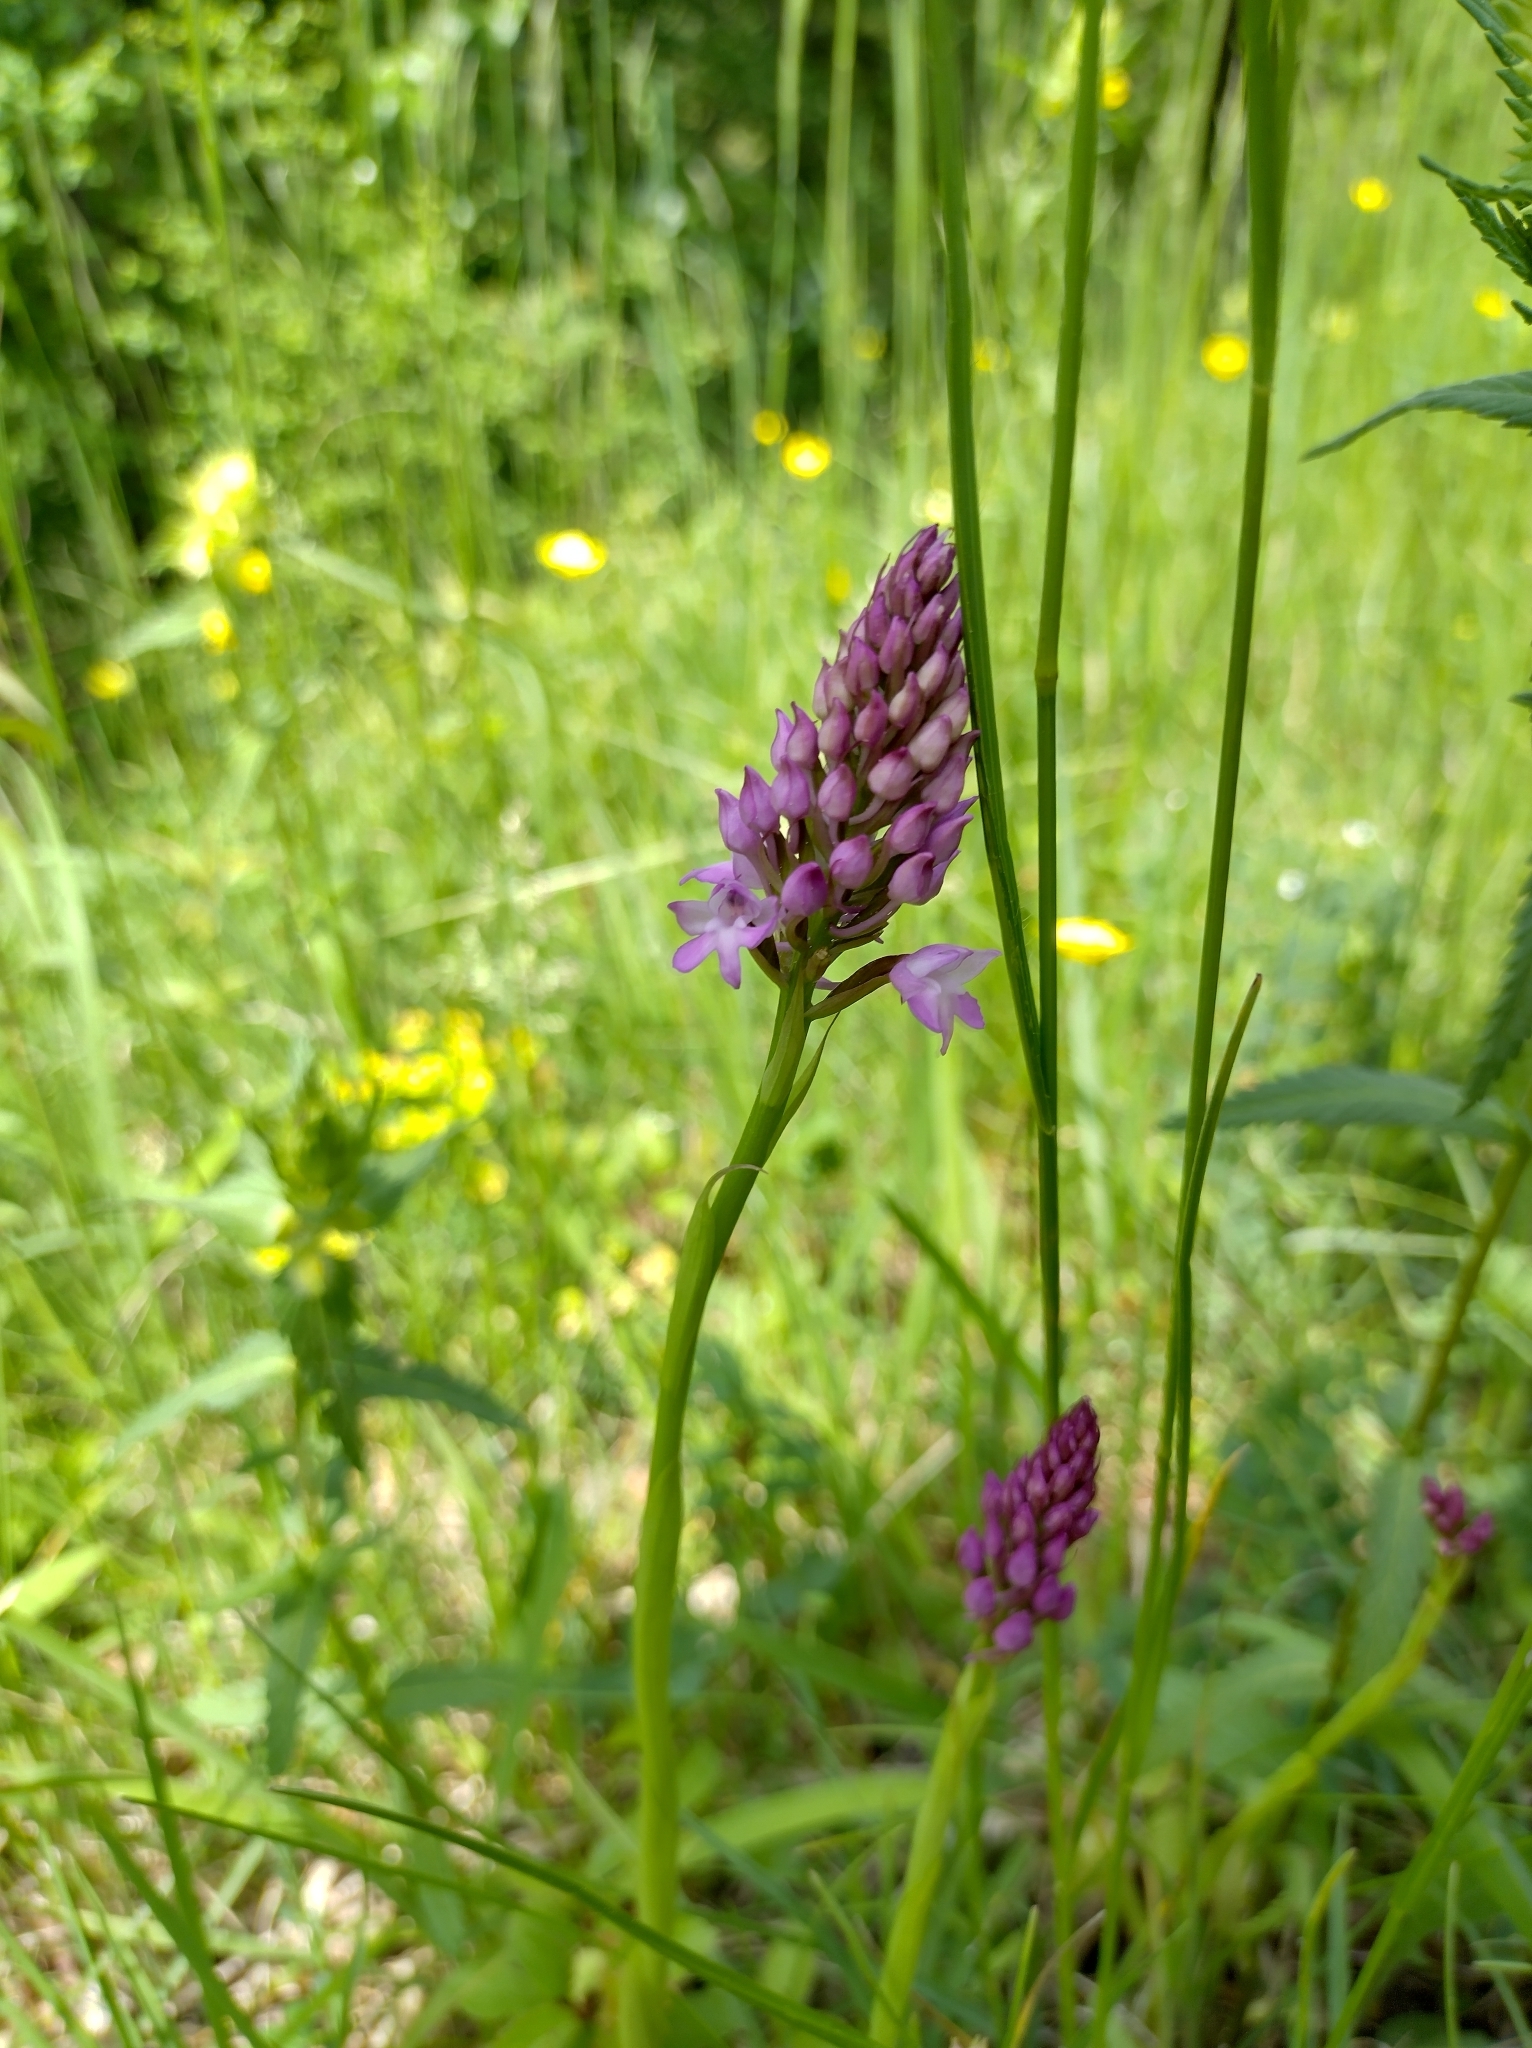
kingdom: Plantae
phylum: Tracheophyta
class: Liliopsida
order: Asparagales
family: Orchidaceae
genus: Anacamptis
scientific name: Anacamptis pyramidalis
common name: Pyramidal orchid
